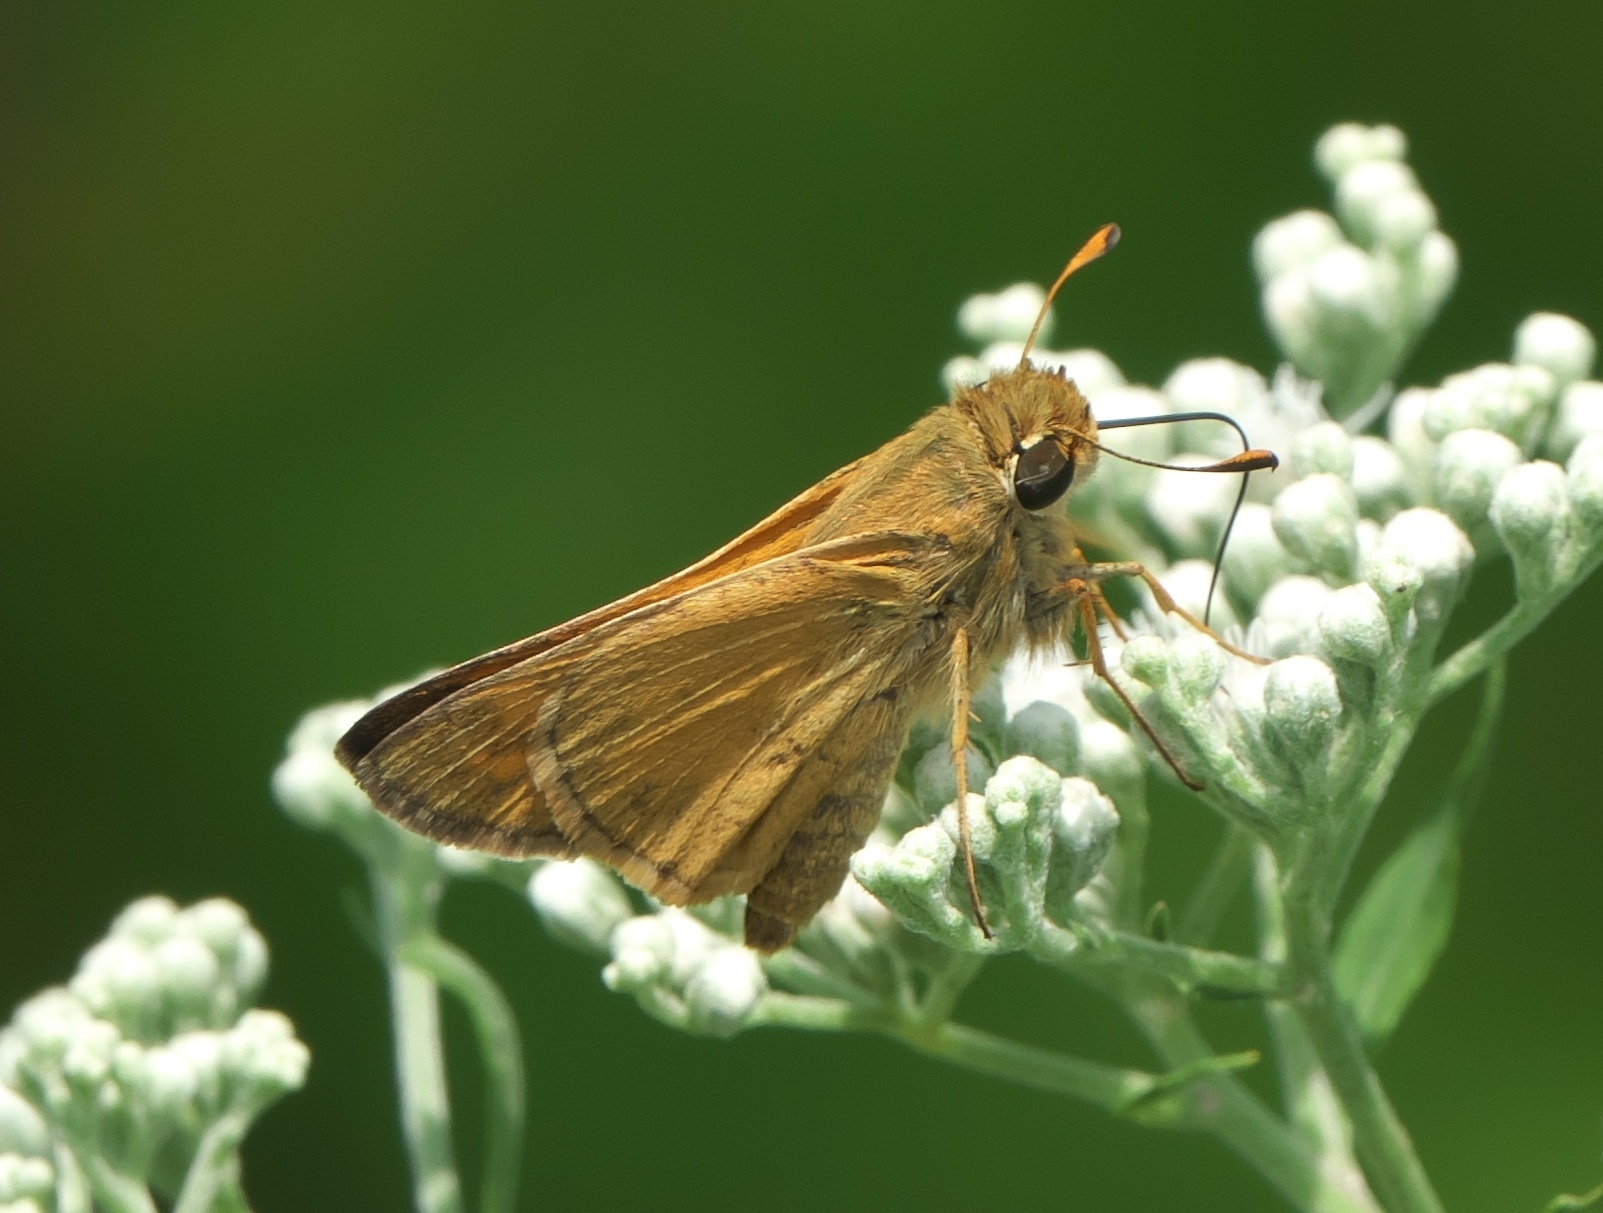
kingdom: Animalia
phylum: Arthropoda
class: Insecta
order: Lepidoptera
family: Hesperiidae
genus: Atalopedes
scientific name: Atalopedes
